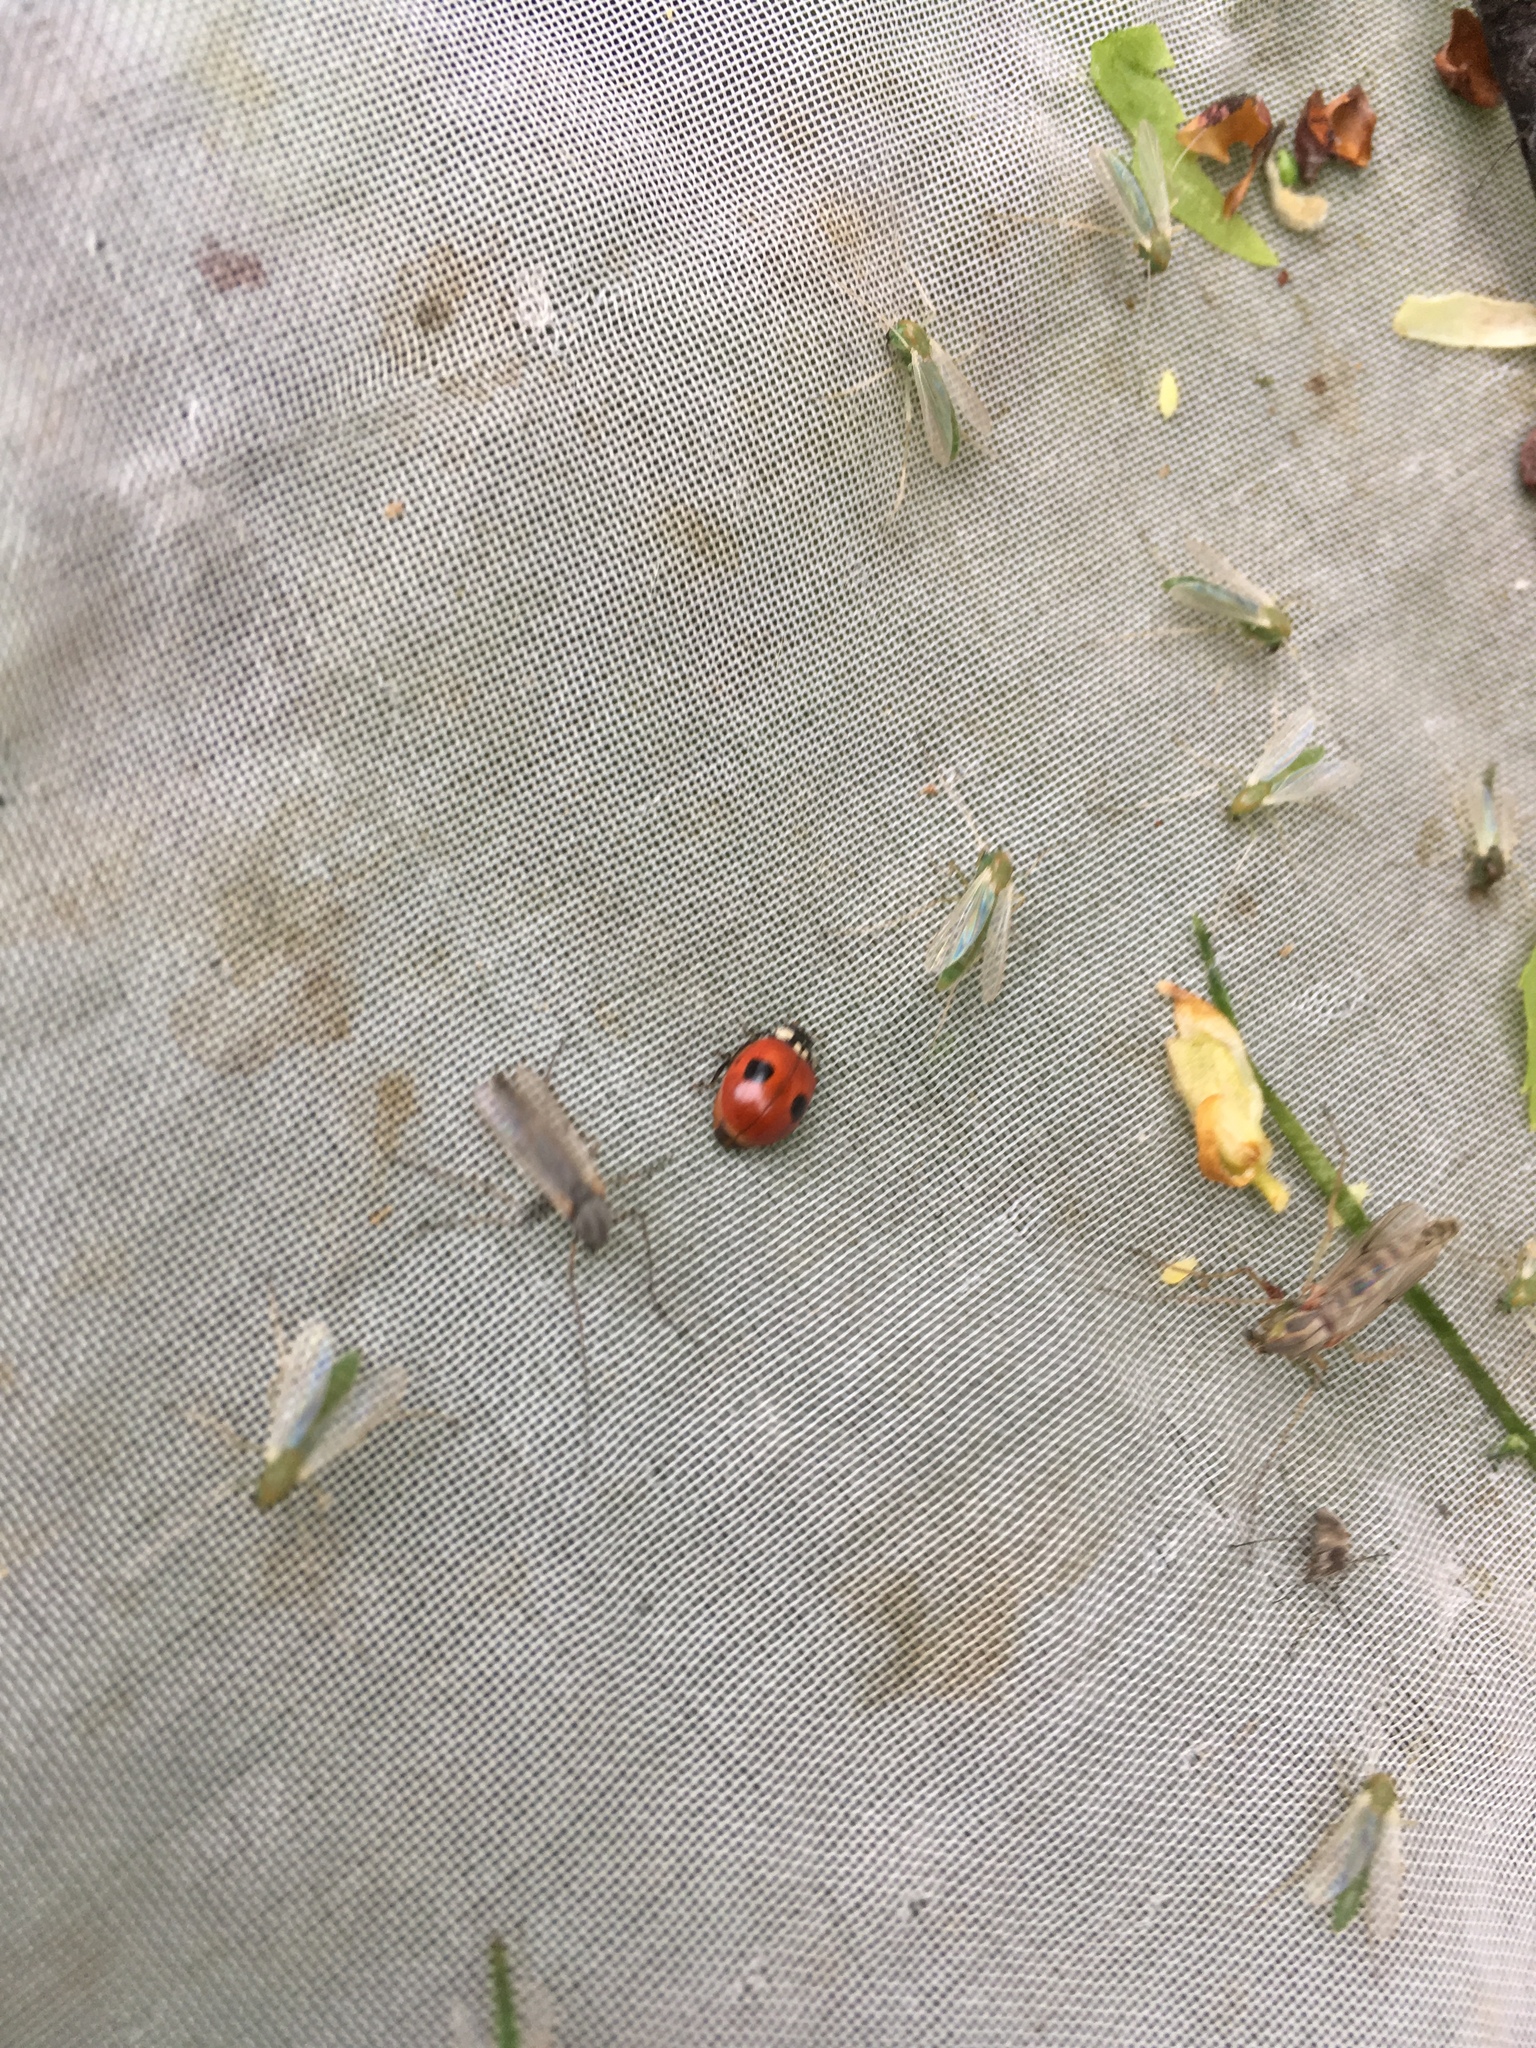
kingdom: Animalia
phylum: Arthropoda
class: Insecta
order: Coleoptera
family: Coccinellidae
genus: Adalia
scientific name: Adalia bipunctata
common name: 2-spot ladybird
